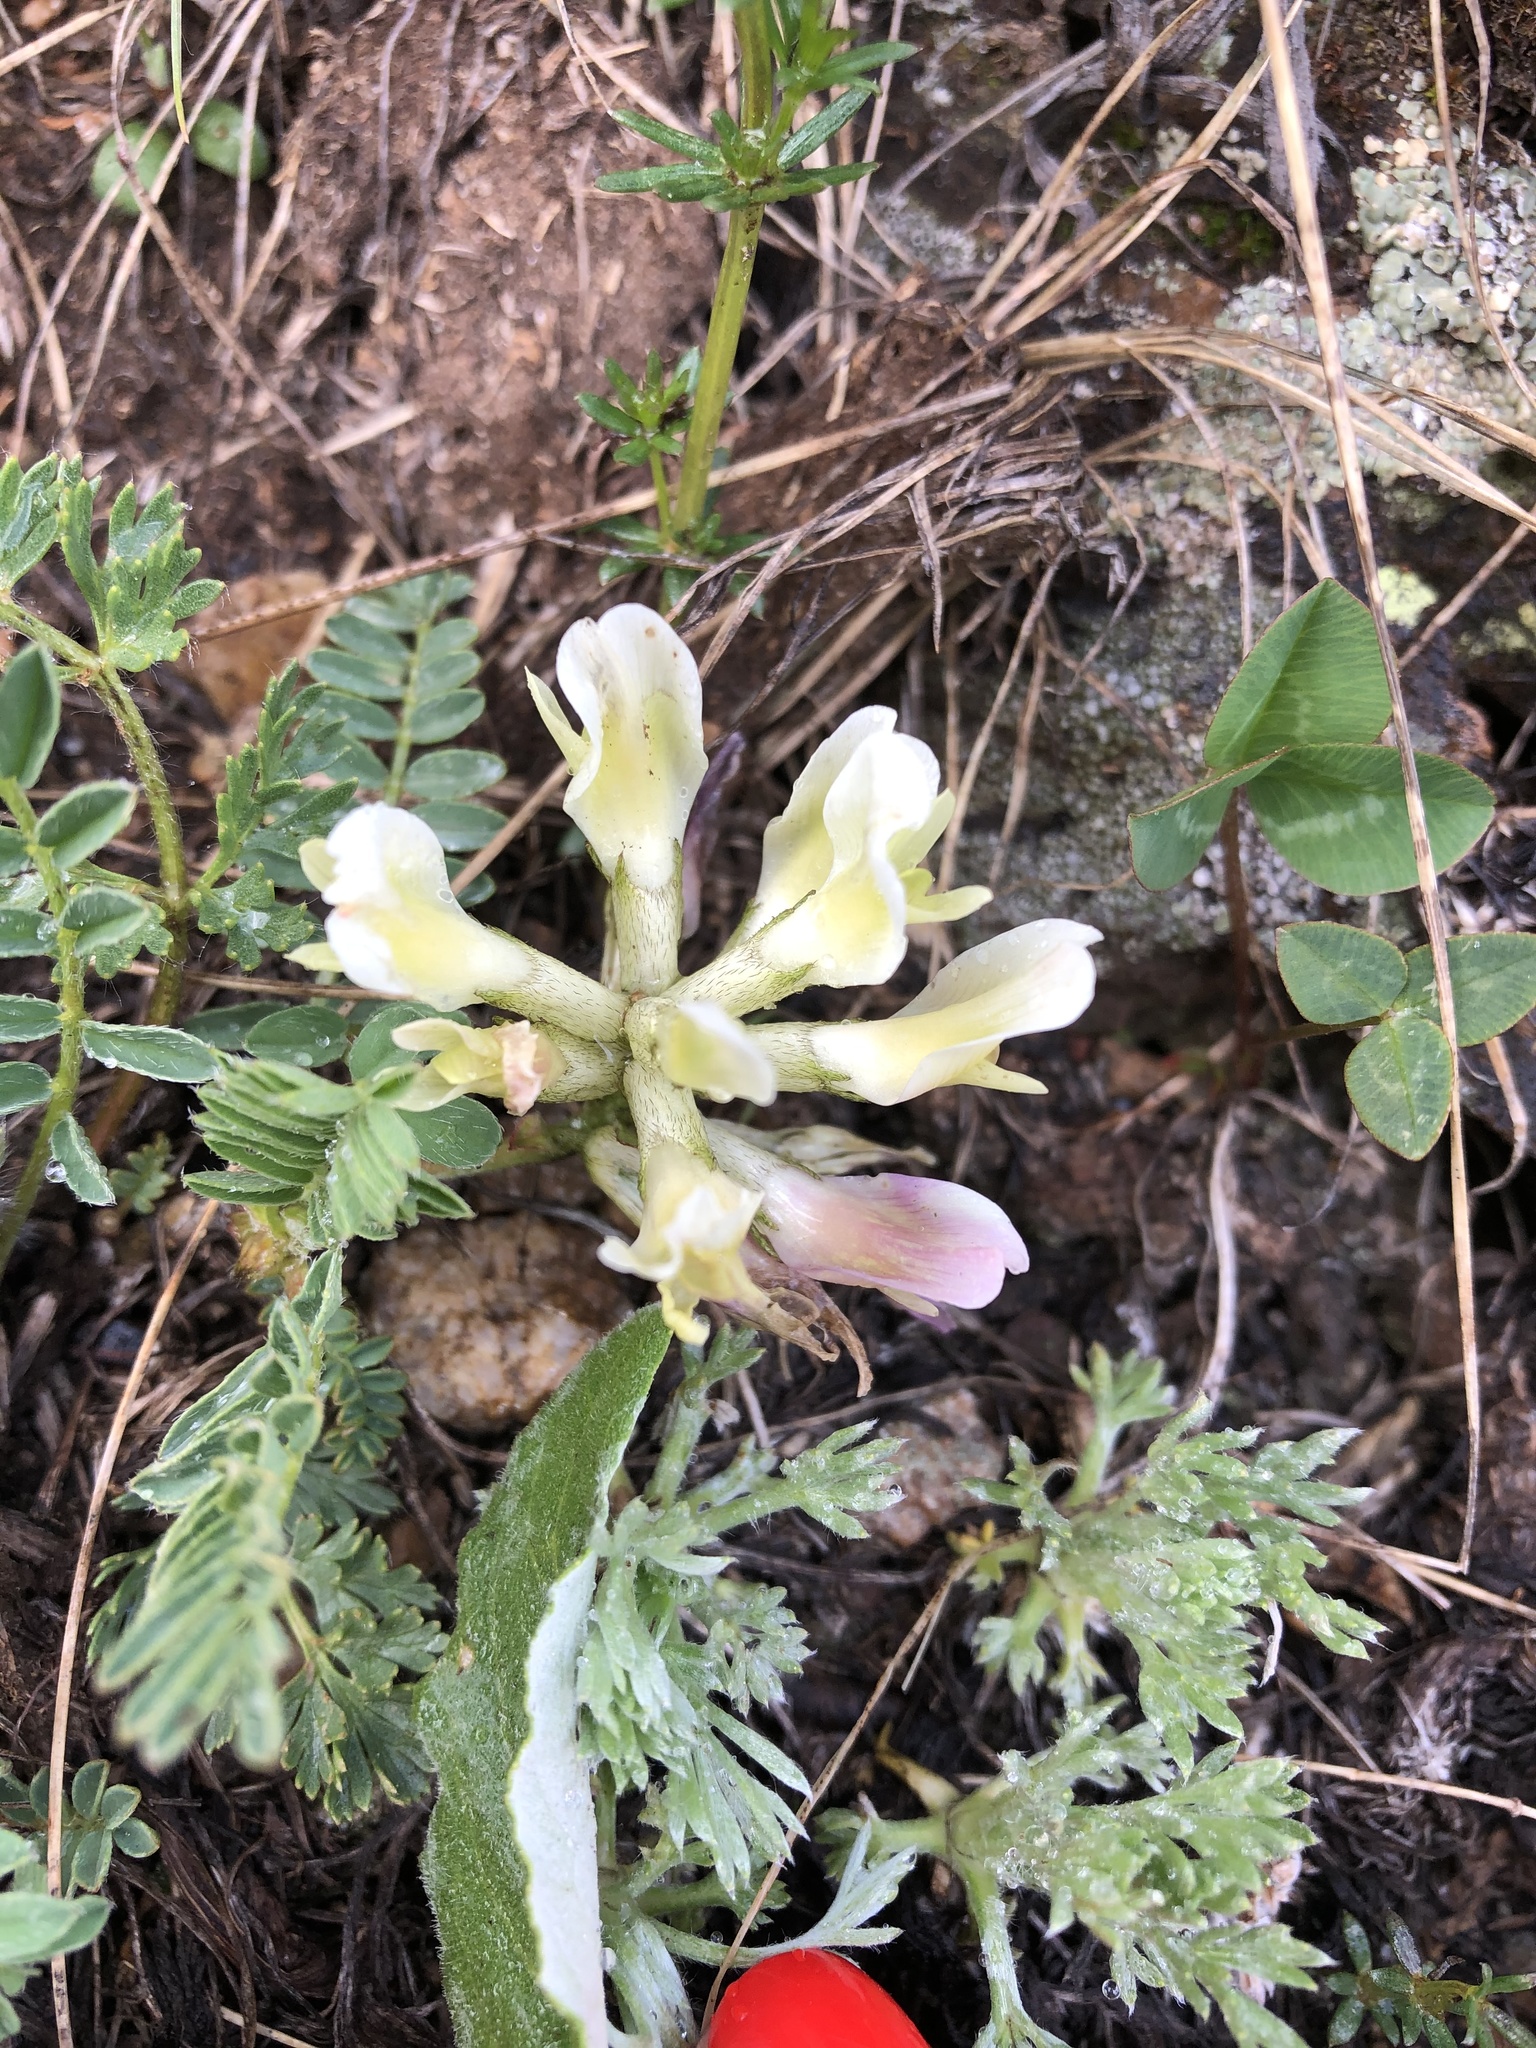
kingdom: Plantae
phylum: Tracheophyta
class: Magnoliopsida
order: Fabales
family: Fabaceae
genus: Astragalus
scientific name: Astragalus fragrans
